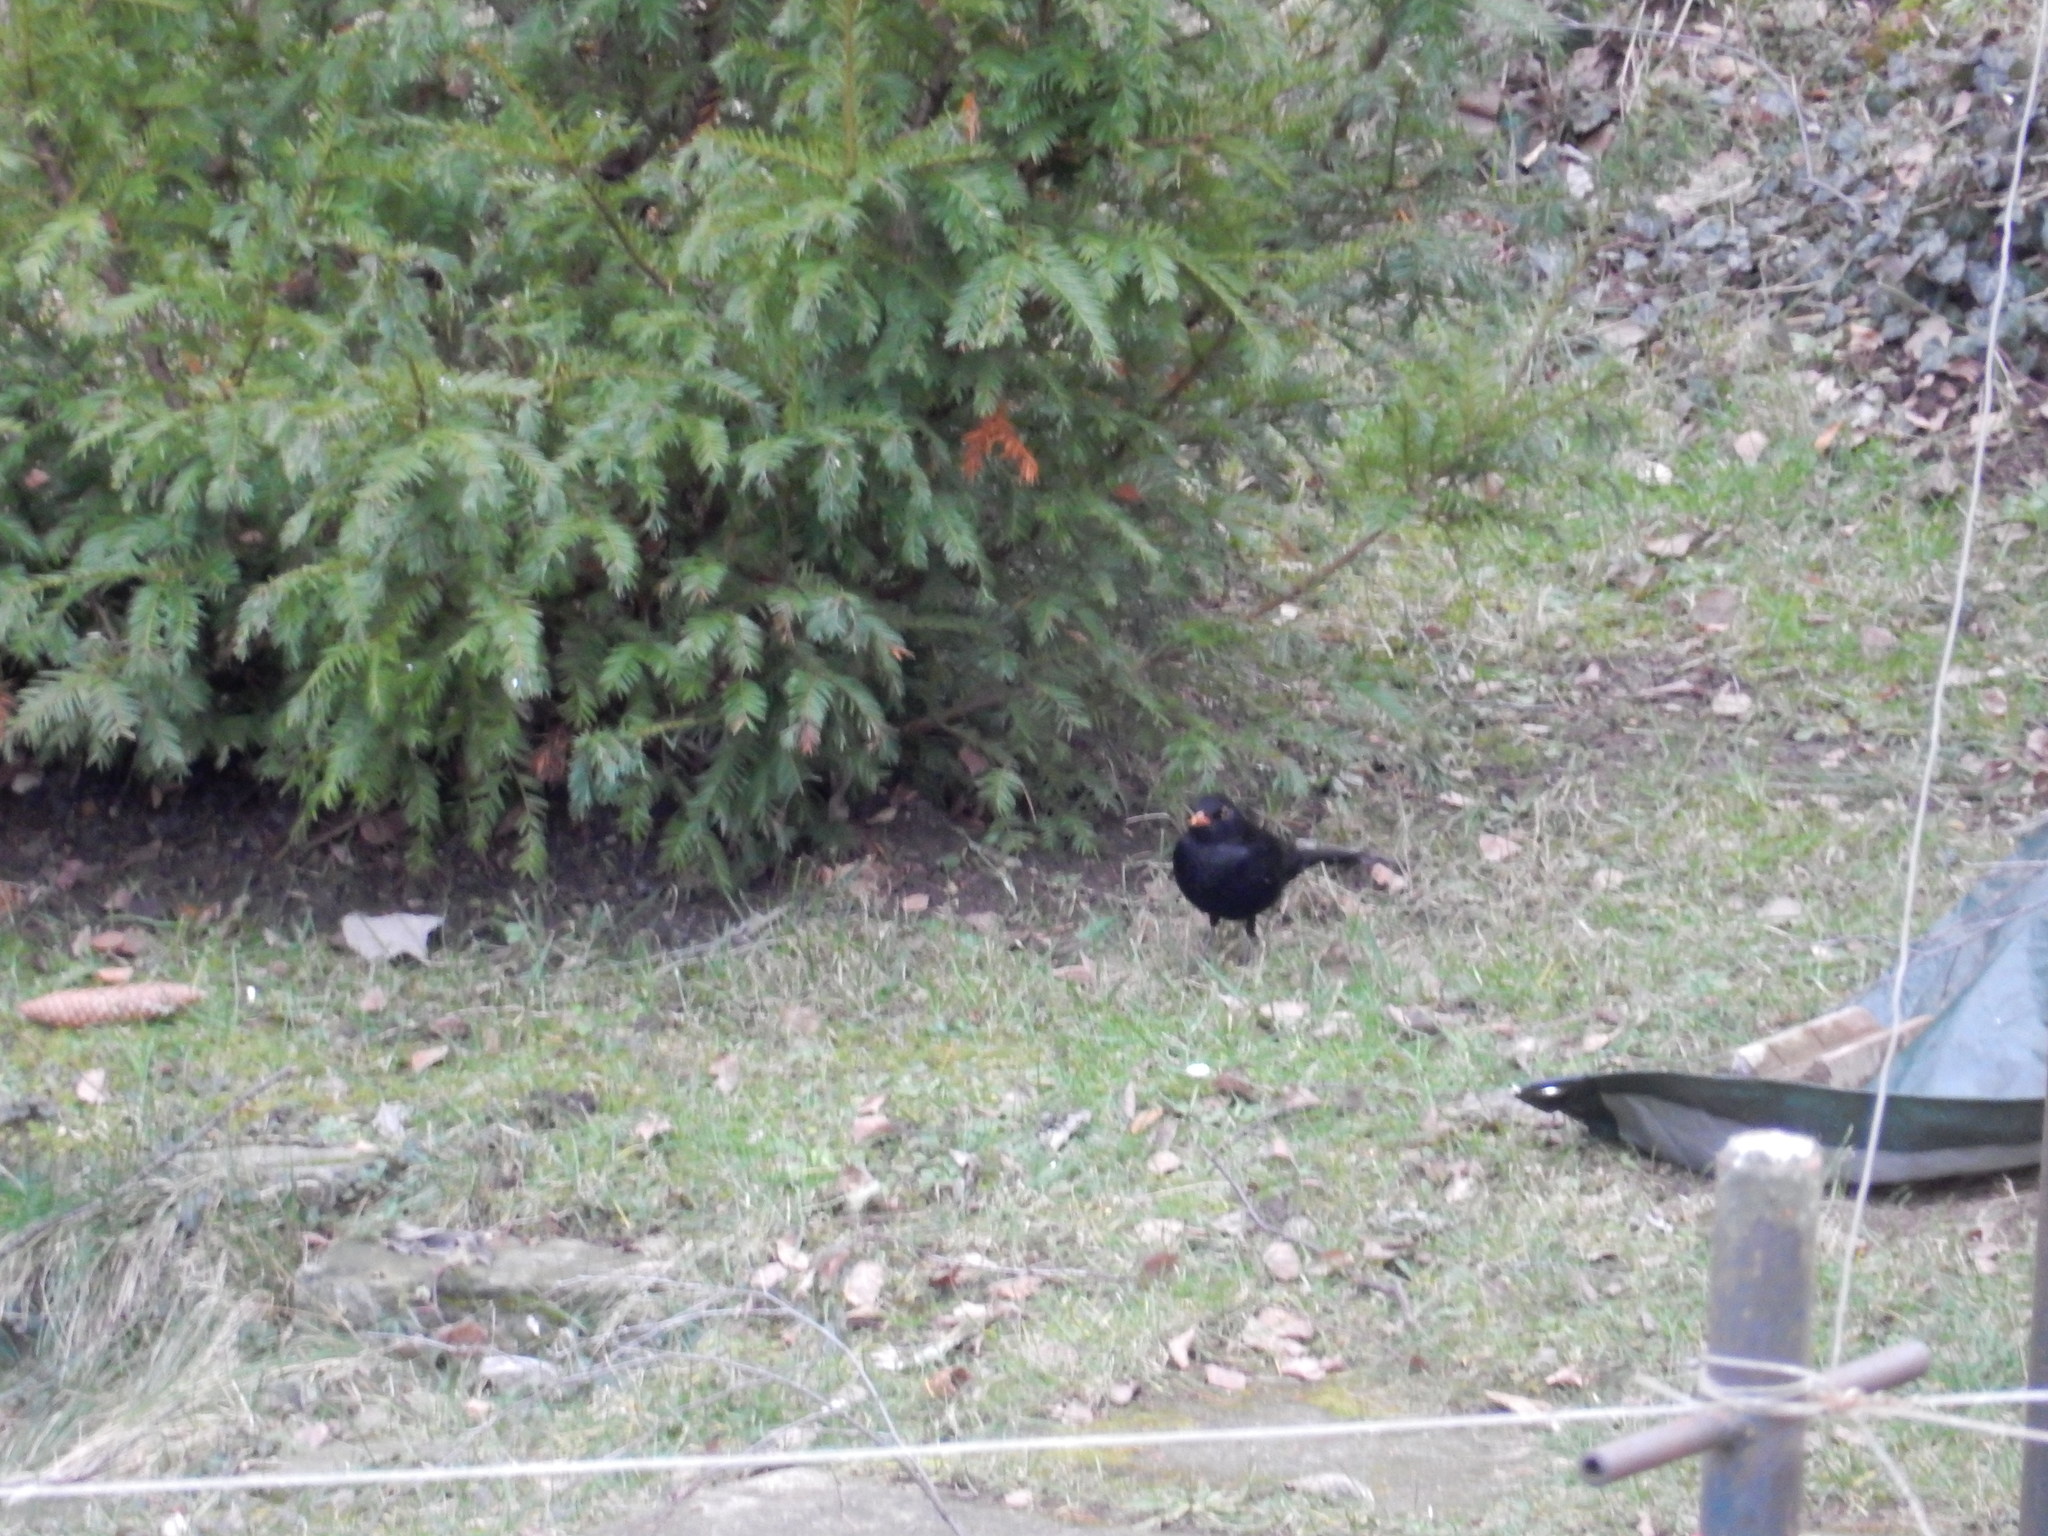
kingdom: Animalia
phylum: Chordata
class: Aves
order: Passeriformes
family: Turdidae
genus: Turdus
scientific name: Turdus merula
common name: Common blackbird
